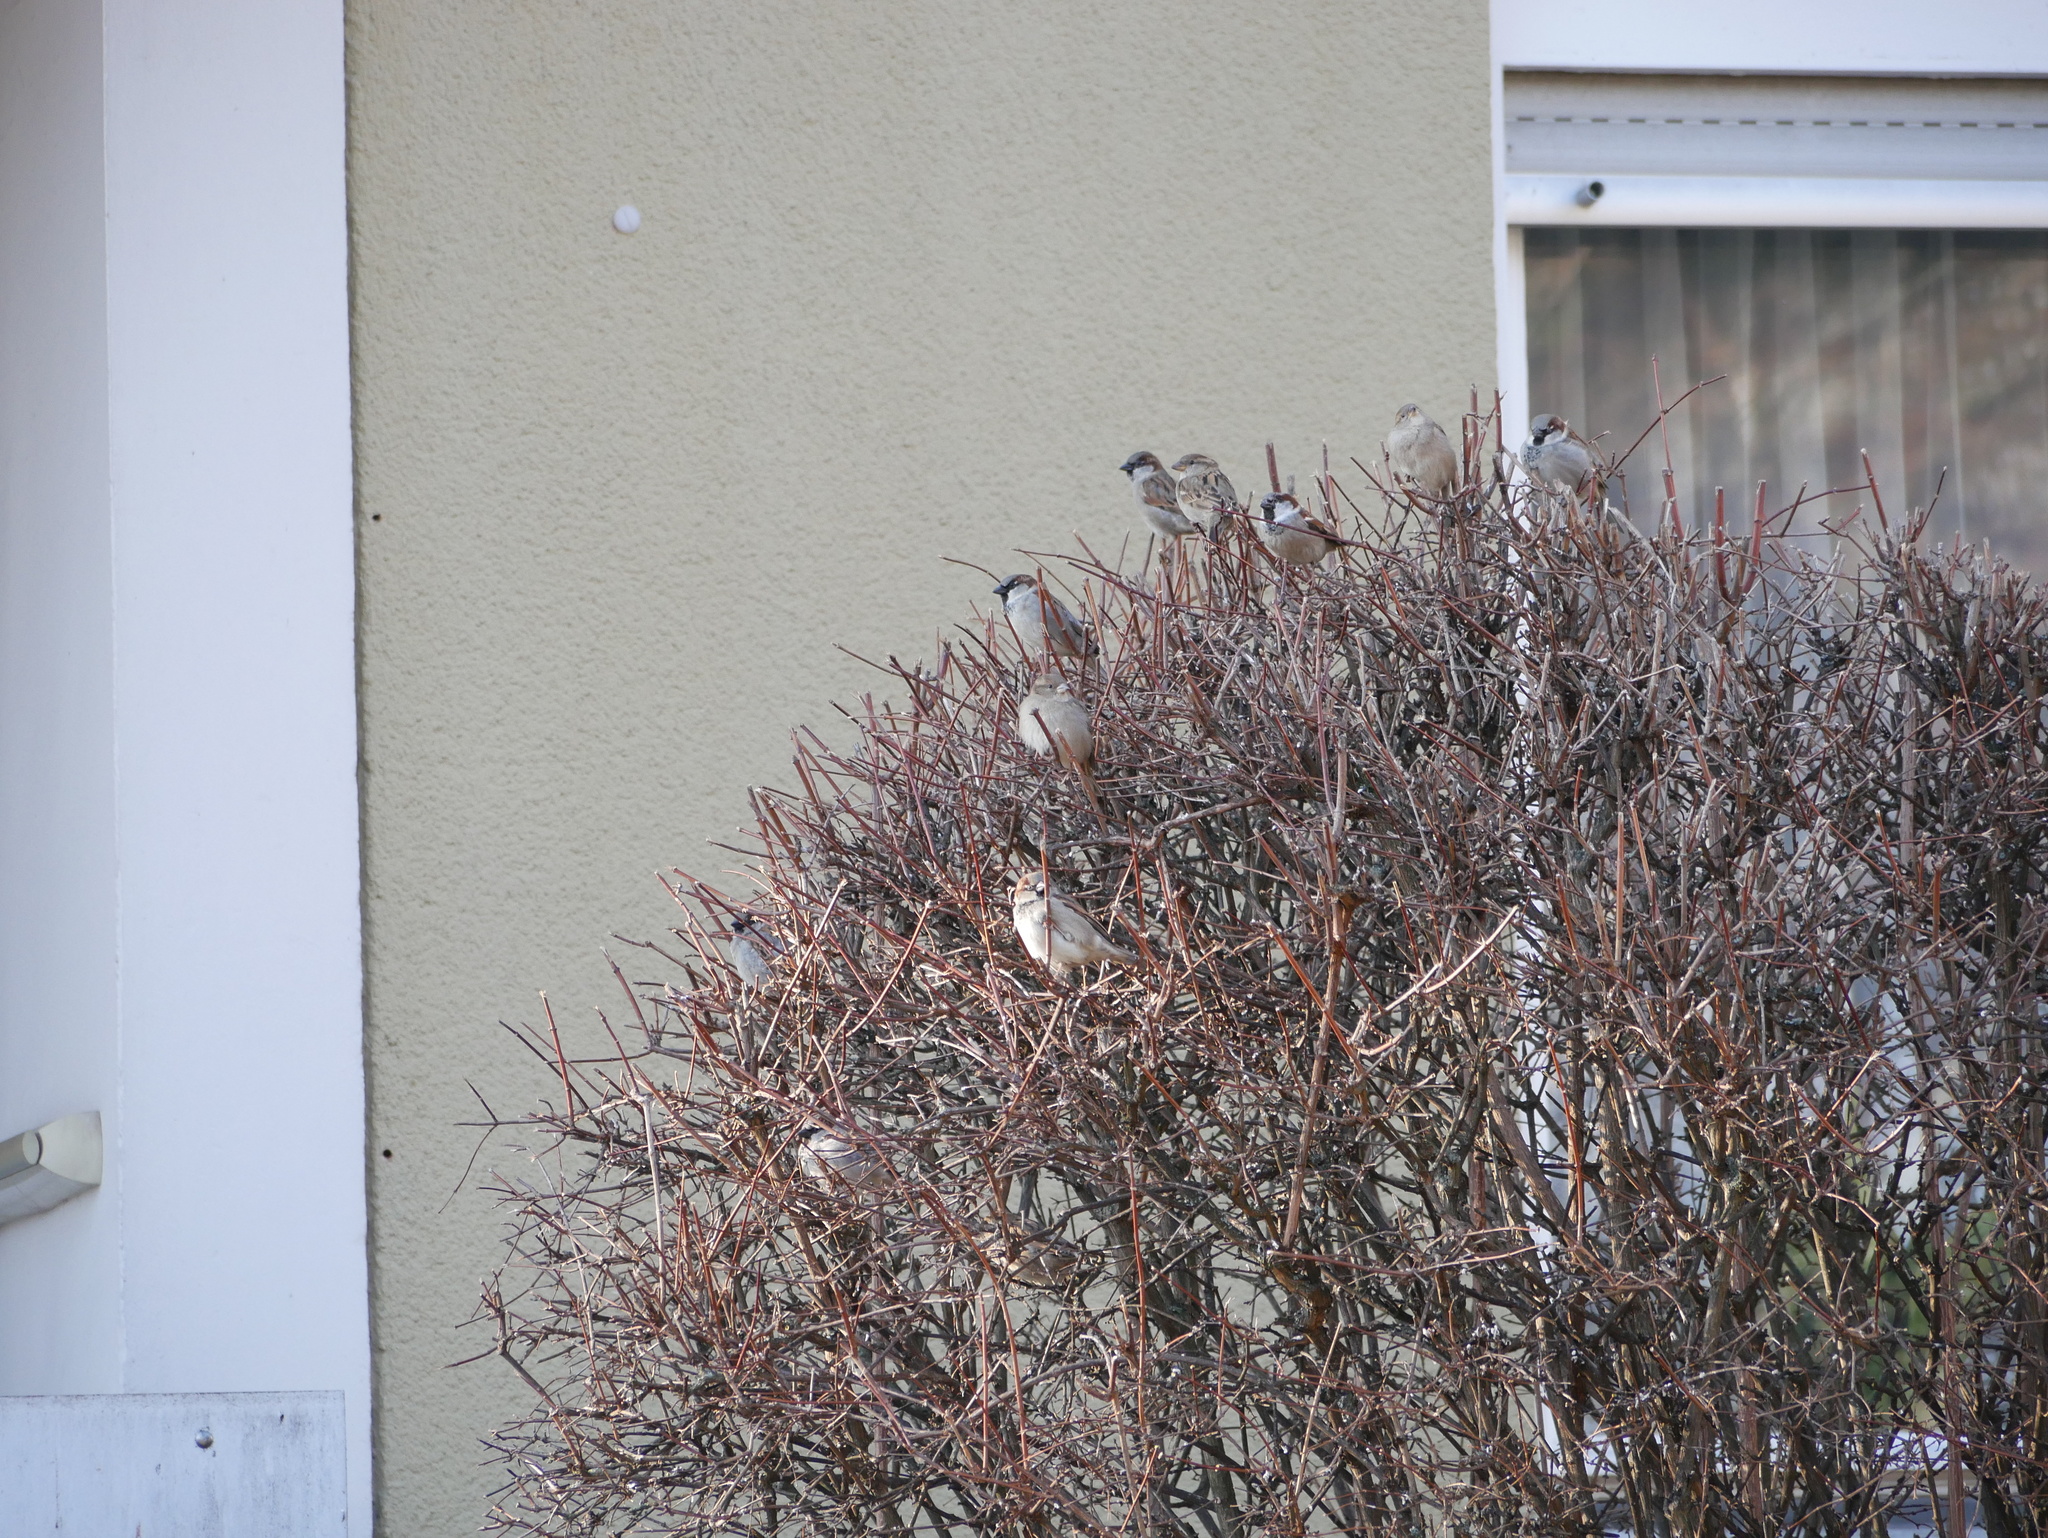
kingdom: Animalia
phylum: Chordata
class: Aves
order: Passeriformes
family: Passeridae
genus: Passer
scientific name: Passer domesticus
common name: House sparrow
